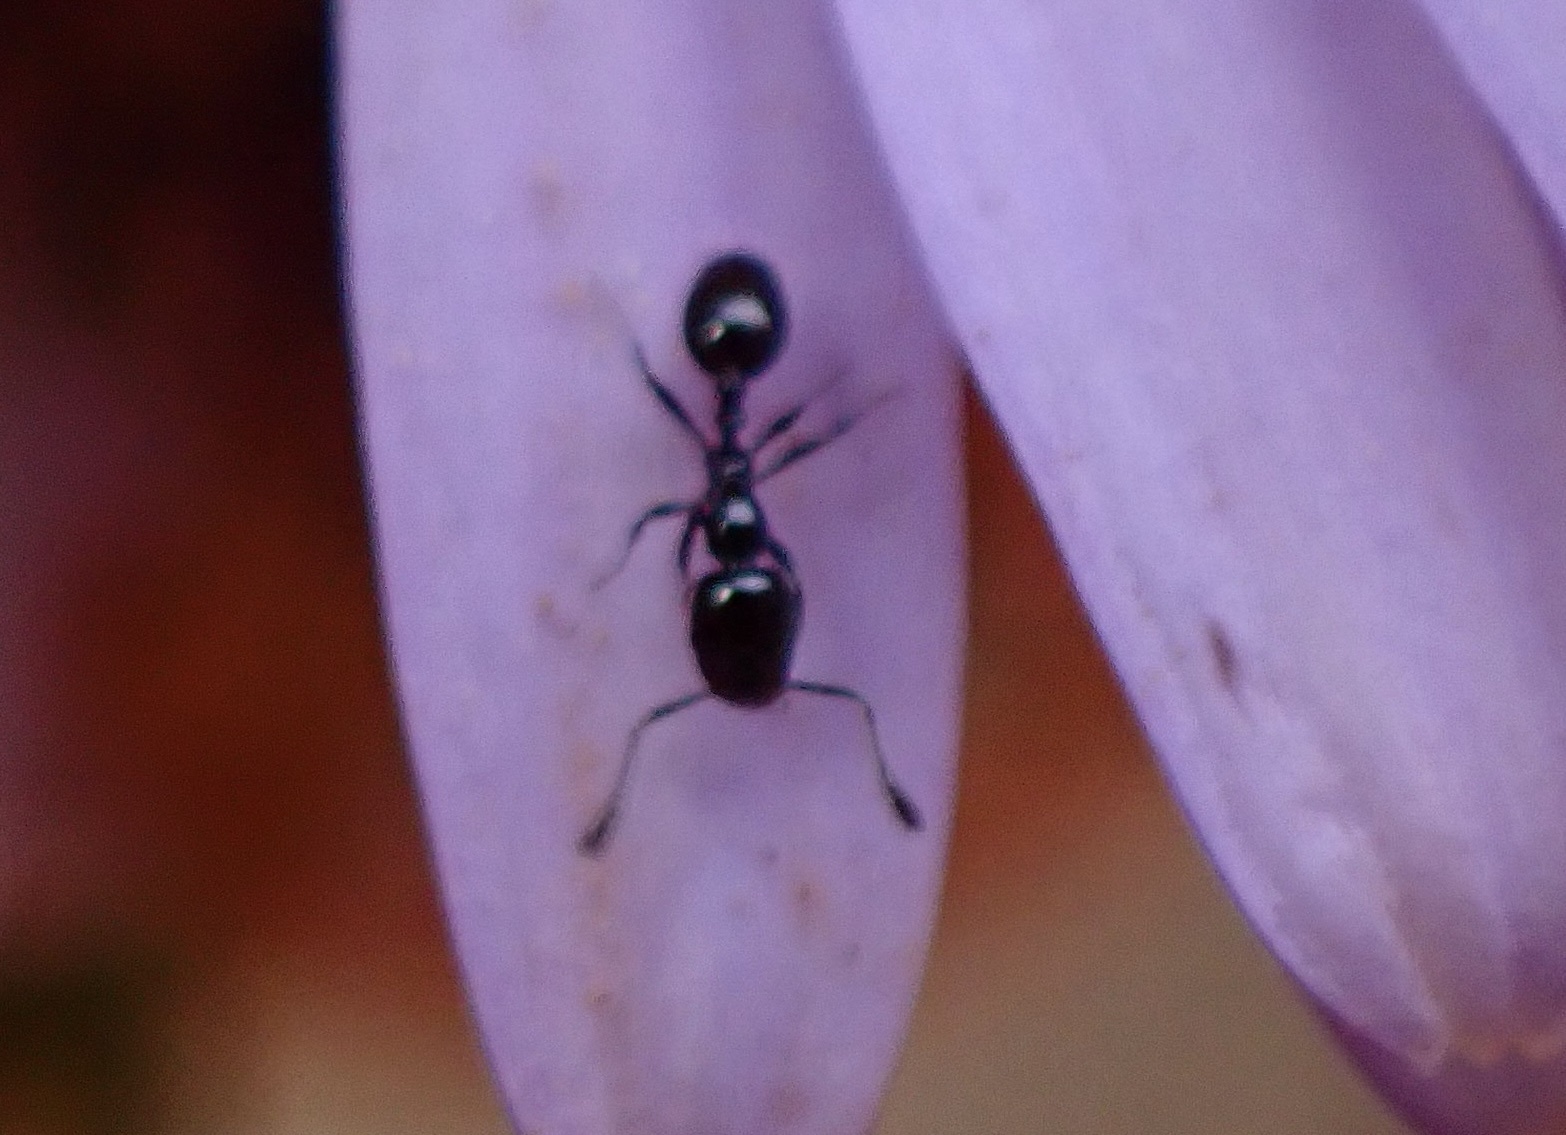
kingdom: Animalia
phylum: Arthropoda
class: Insecta
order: Hymenoptera
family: Formicidae
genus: Monomorium
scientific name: Monomorium ergatogyna
